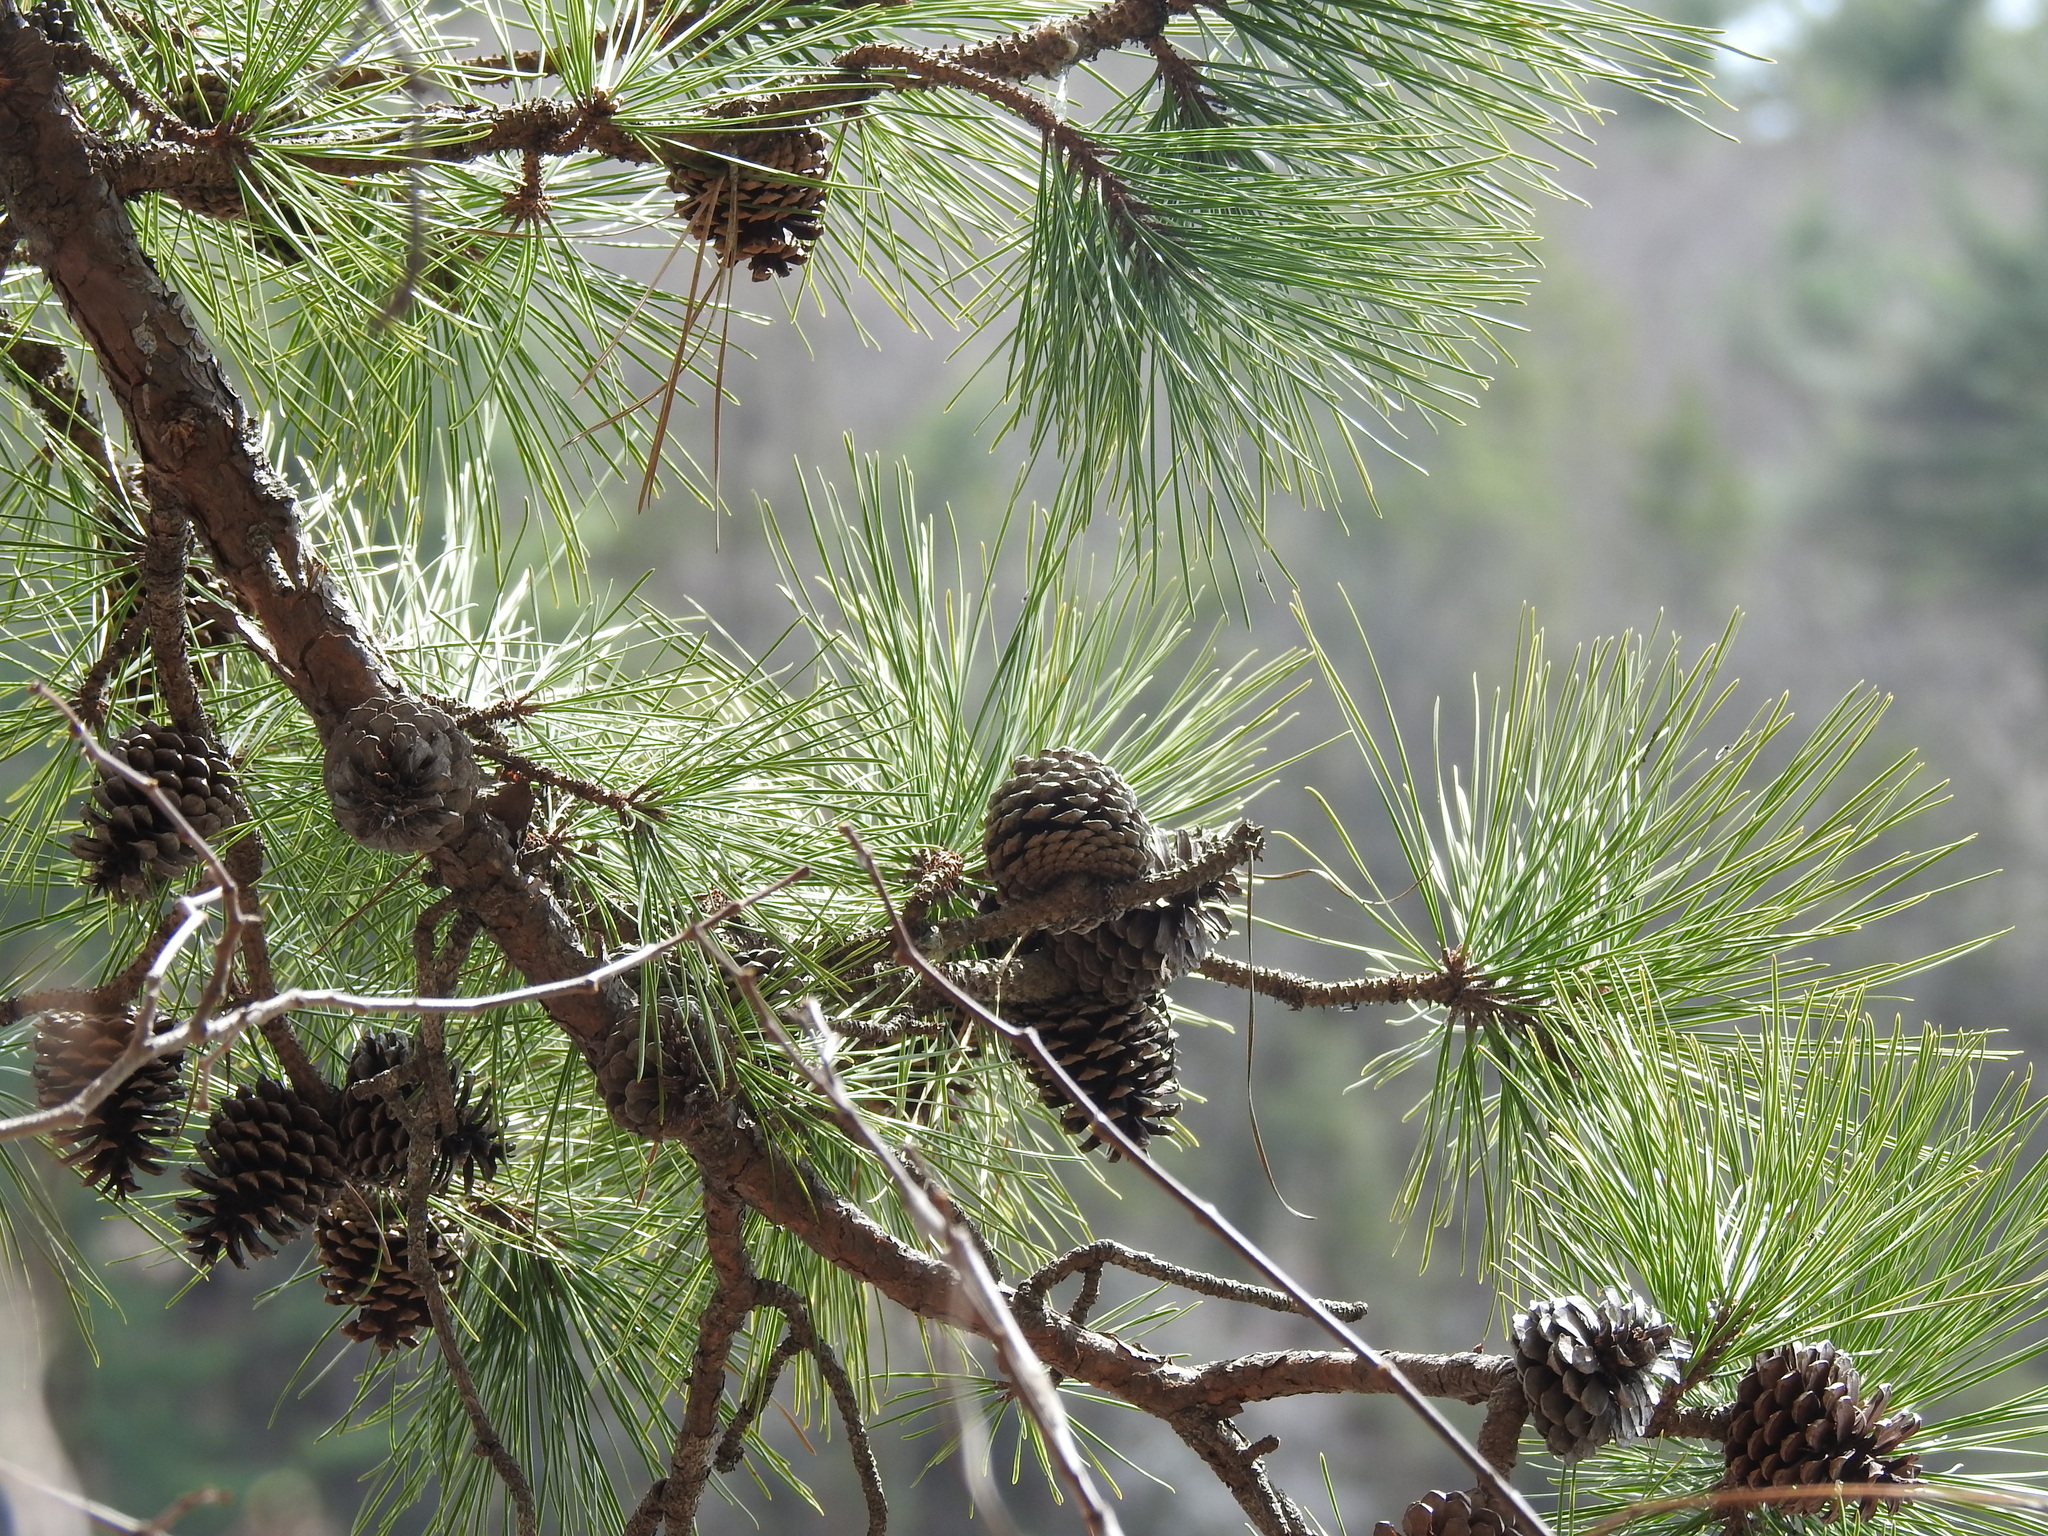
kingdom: Plantae
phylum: Tracheophyta
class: Pinopsida
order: Pinales
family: Pinaceae
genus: Pinus
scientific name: Pinus rigida
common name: Pitch pine
